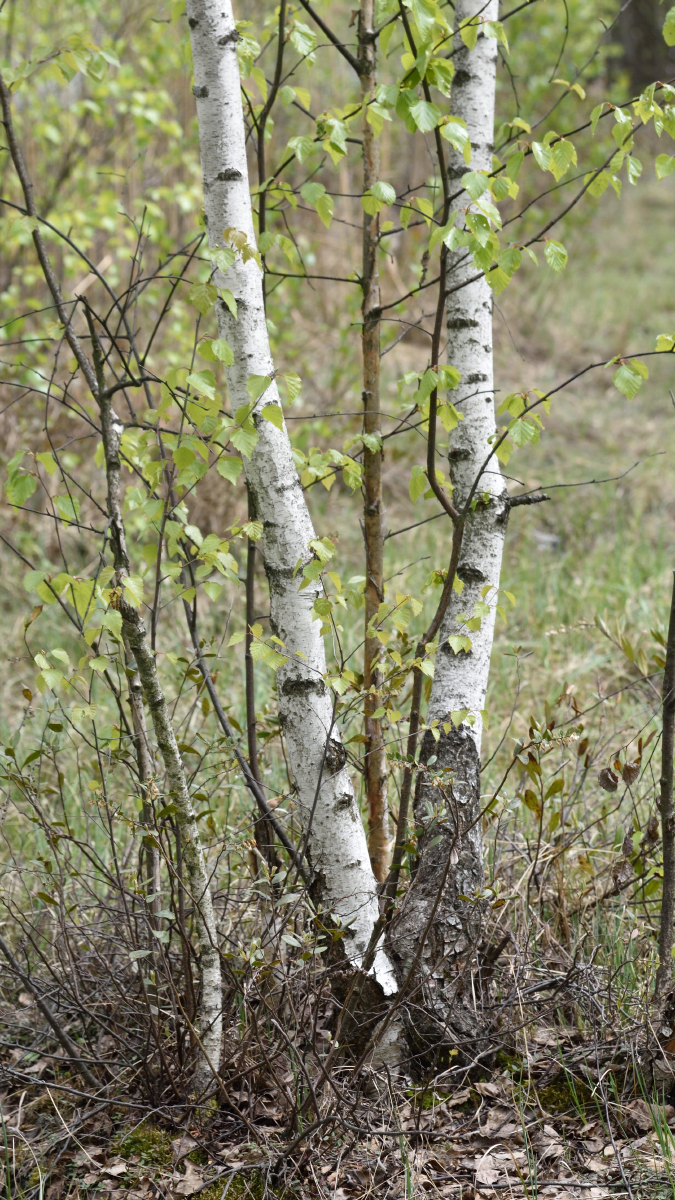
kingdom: Plantae
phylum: Tracheophyta
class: Magnoliopsida
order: Fagales
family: Betulaceae
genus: Betula
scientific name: Betula pubescens
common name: Downy birch
